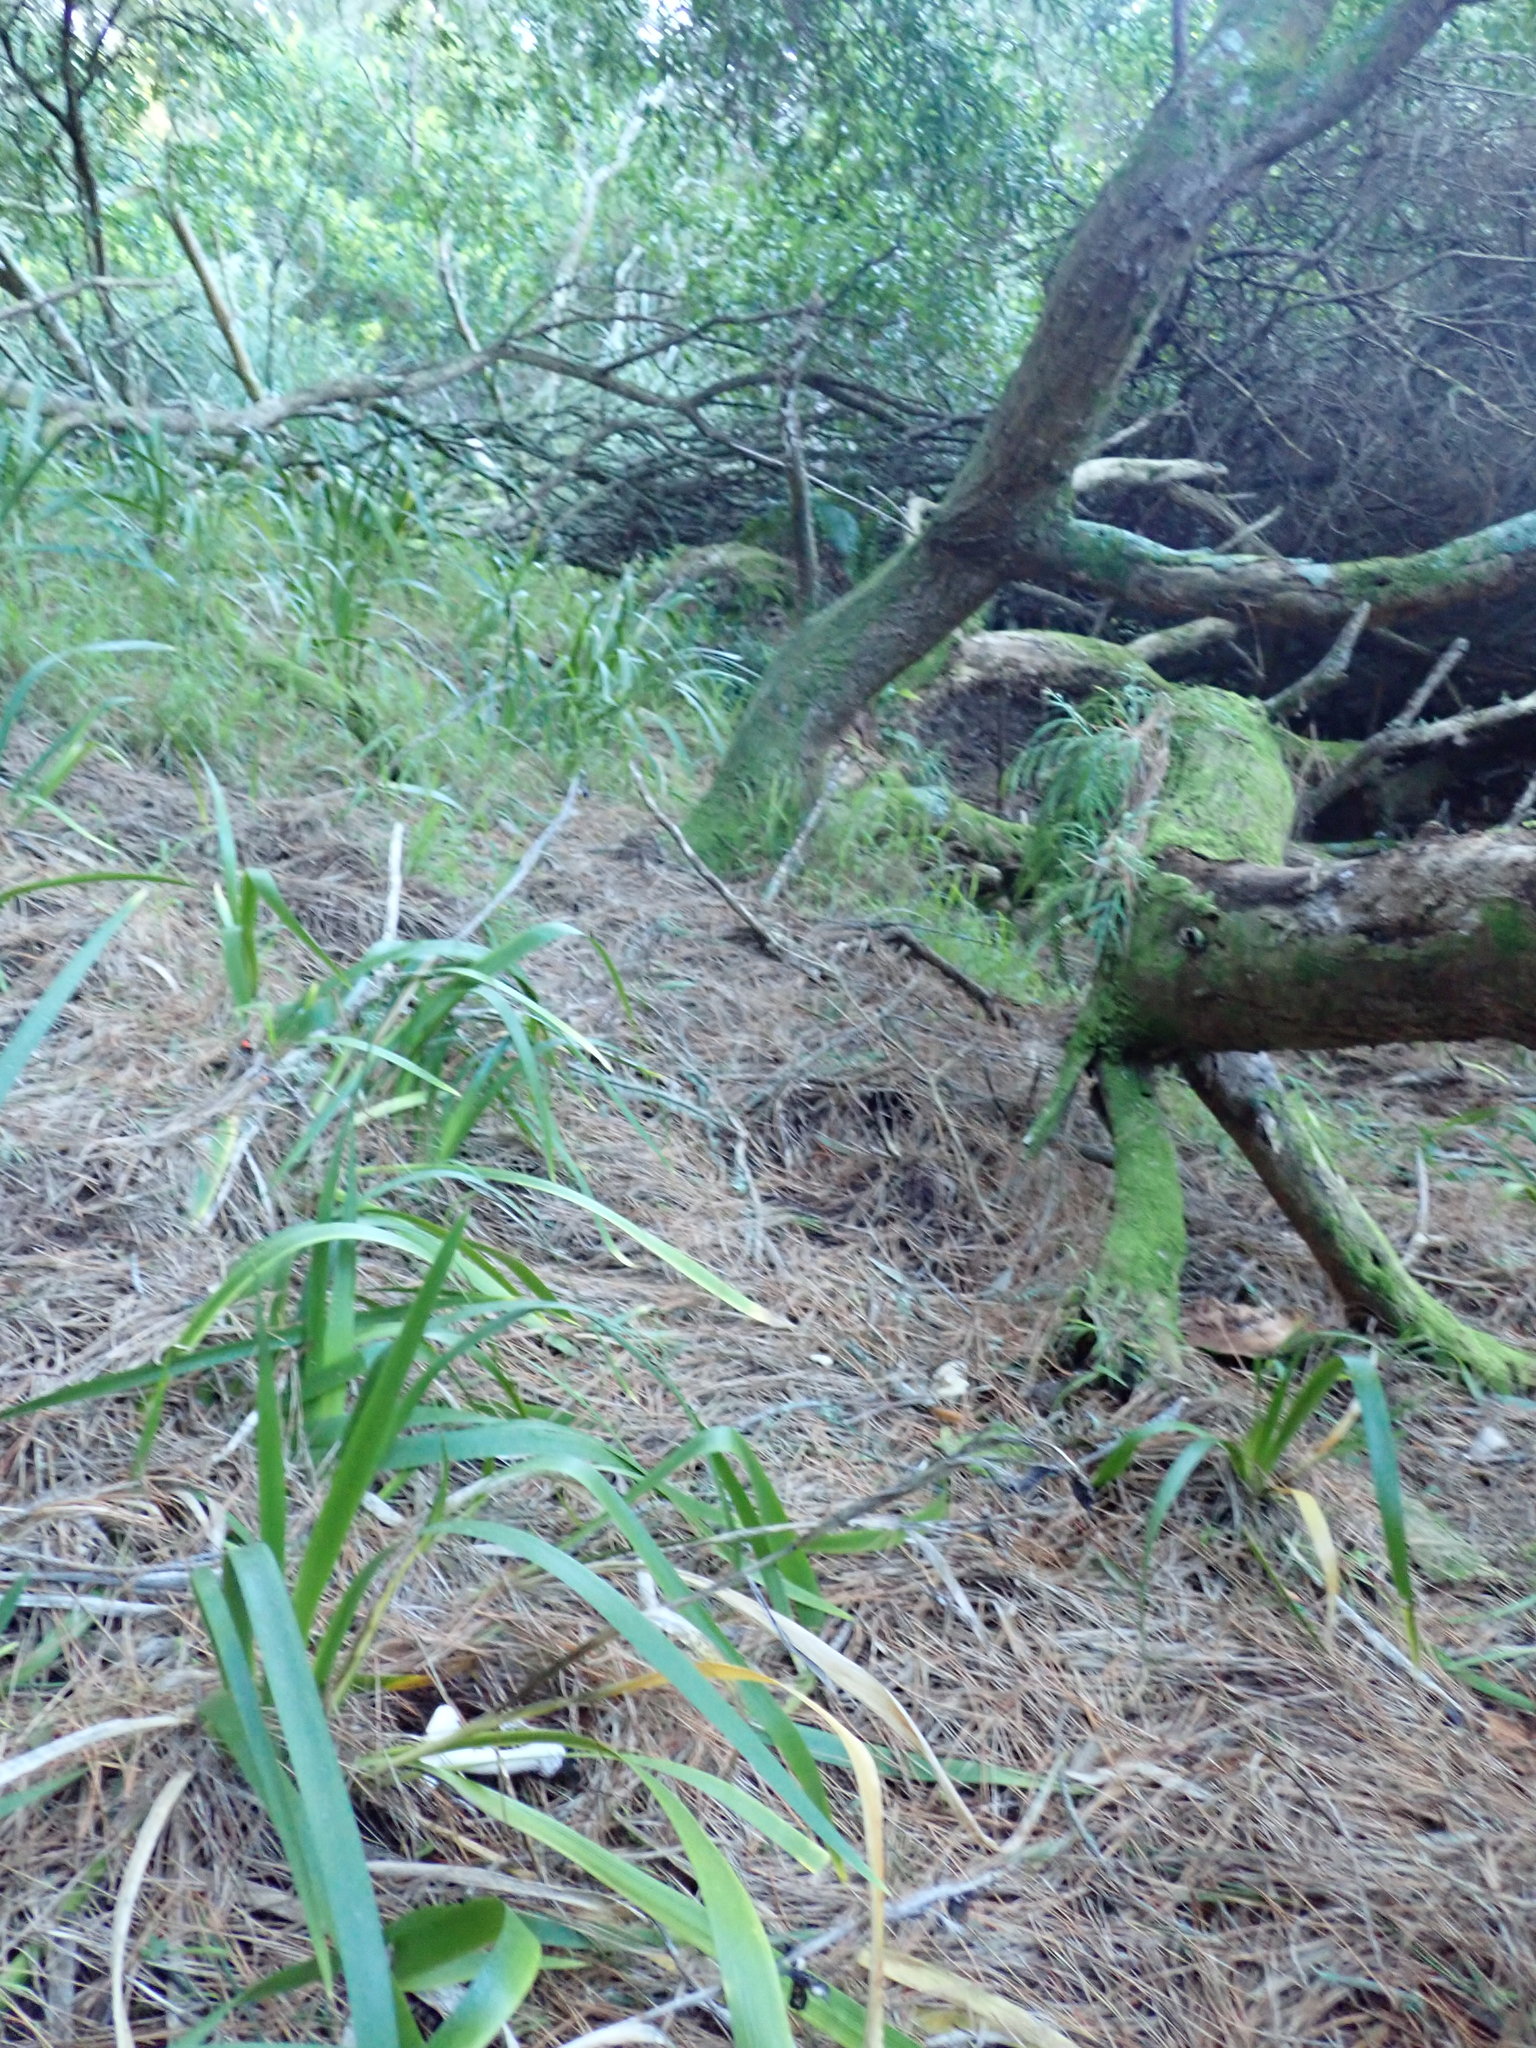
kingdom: Fungi
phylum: Basidiomycota
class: Agaricomycetes
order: Agaricales
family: Amanitaceae
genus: Amanita
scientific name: Amanita gemmata
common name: Jewelled amanita
